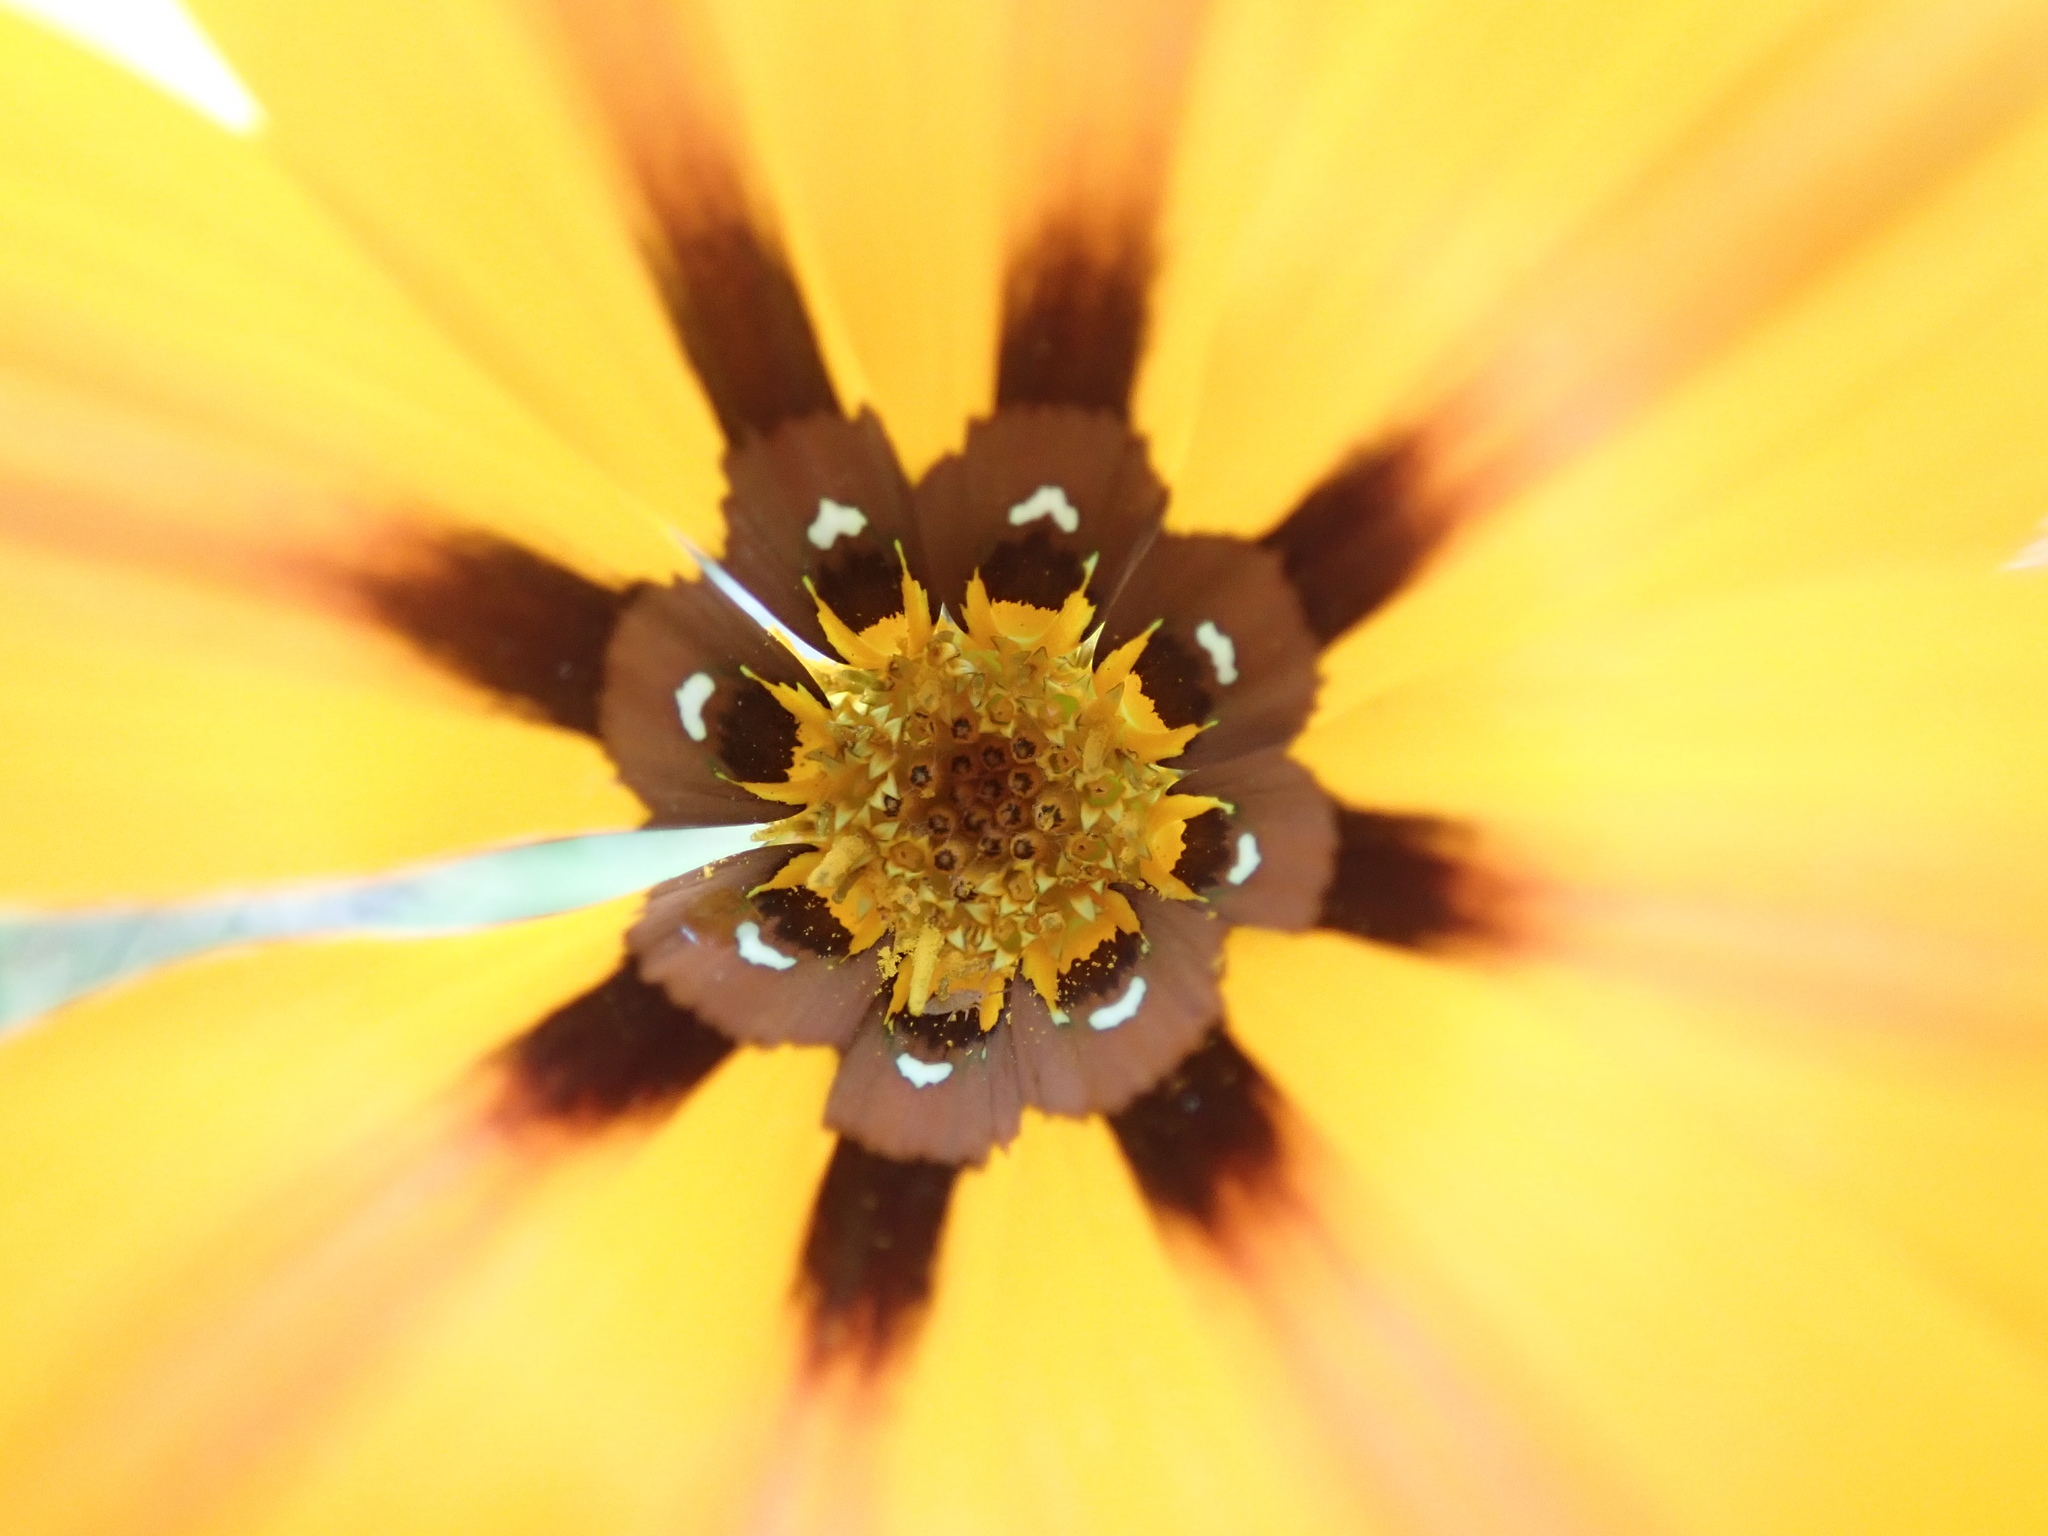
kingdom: Plantae
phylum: Tracheophyta
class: Magnoliopsida
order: Asterales
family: Asteraceae
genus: Gazania
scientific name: Gazania splendens
